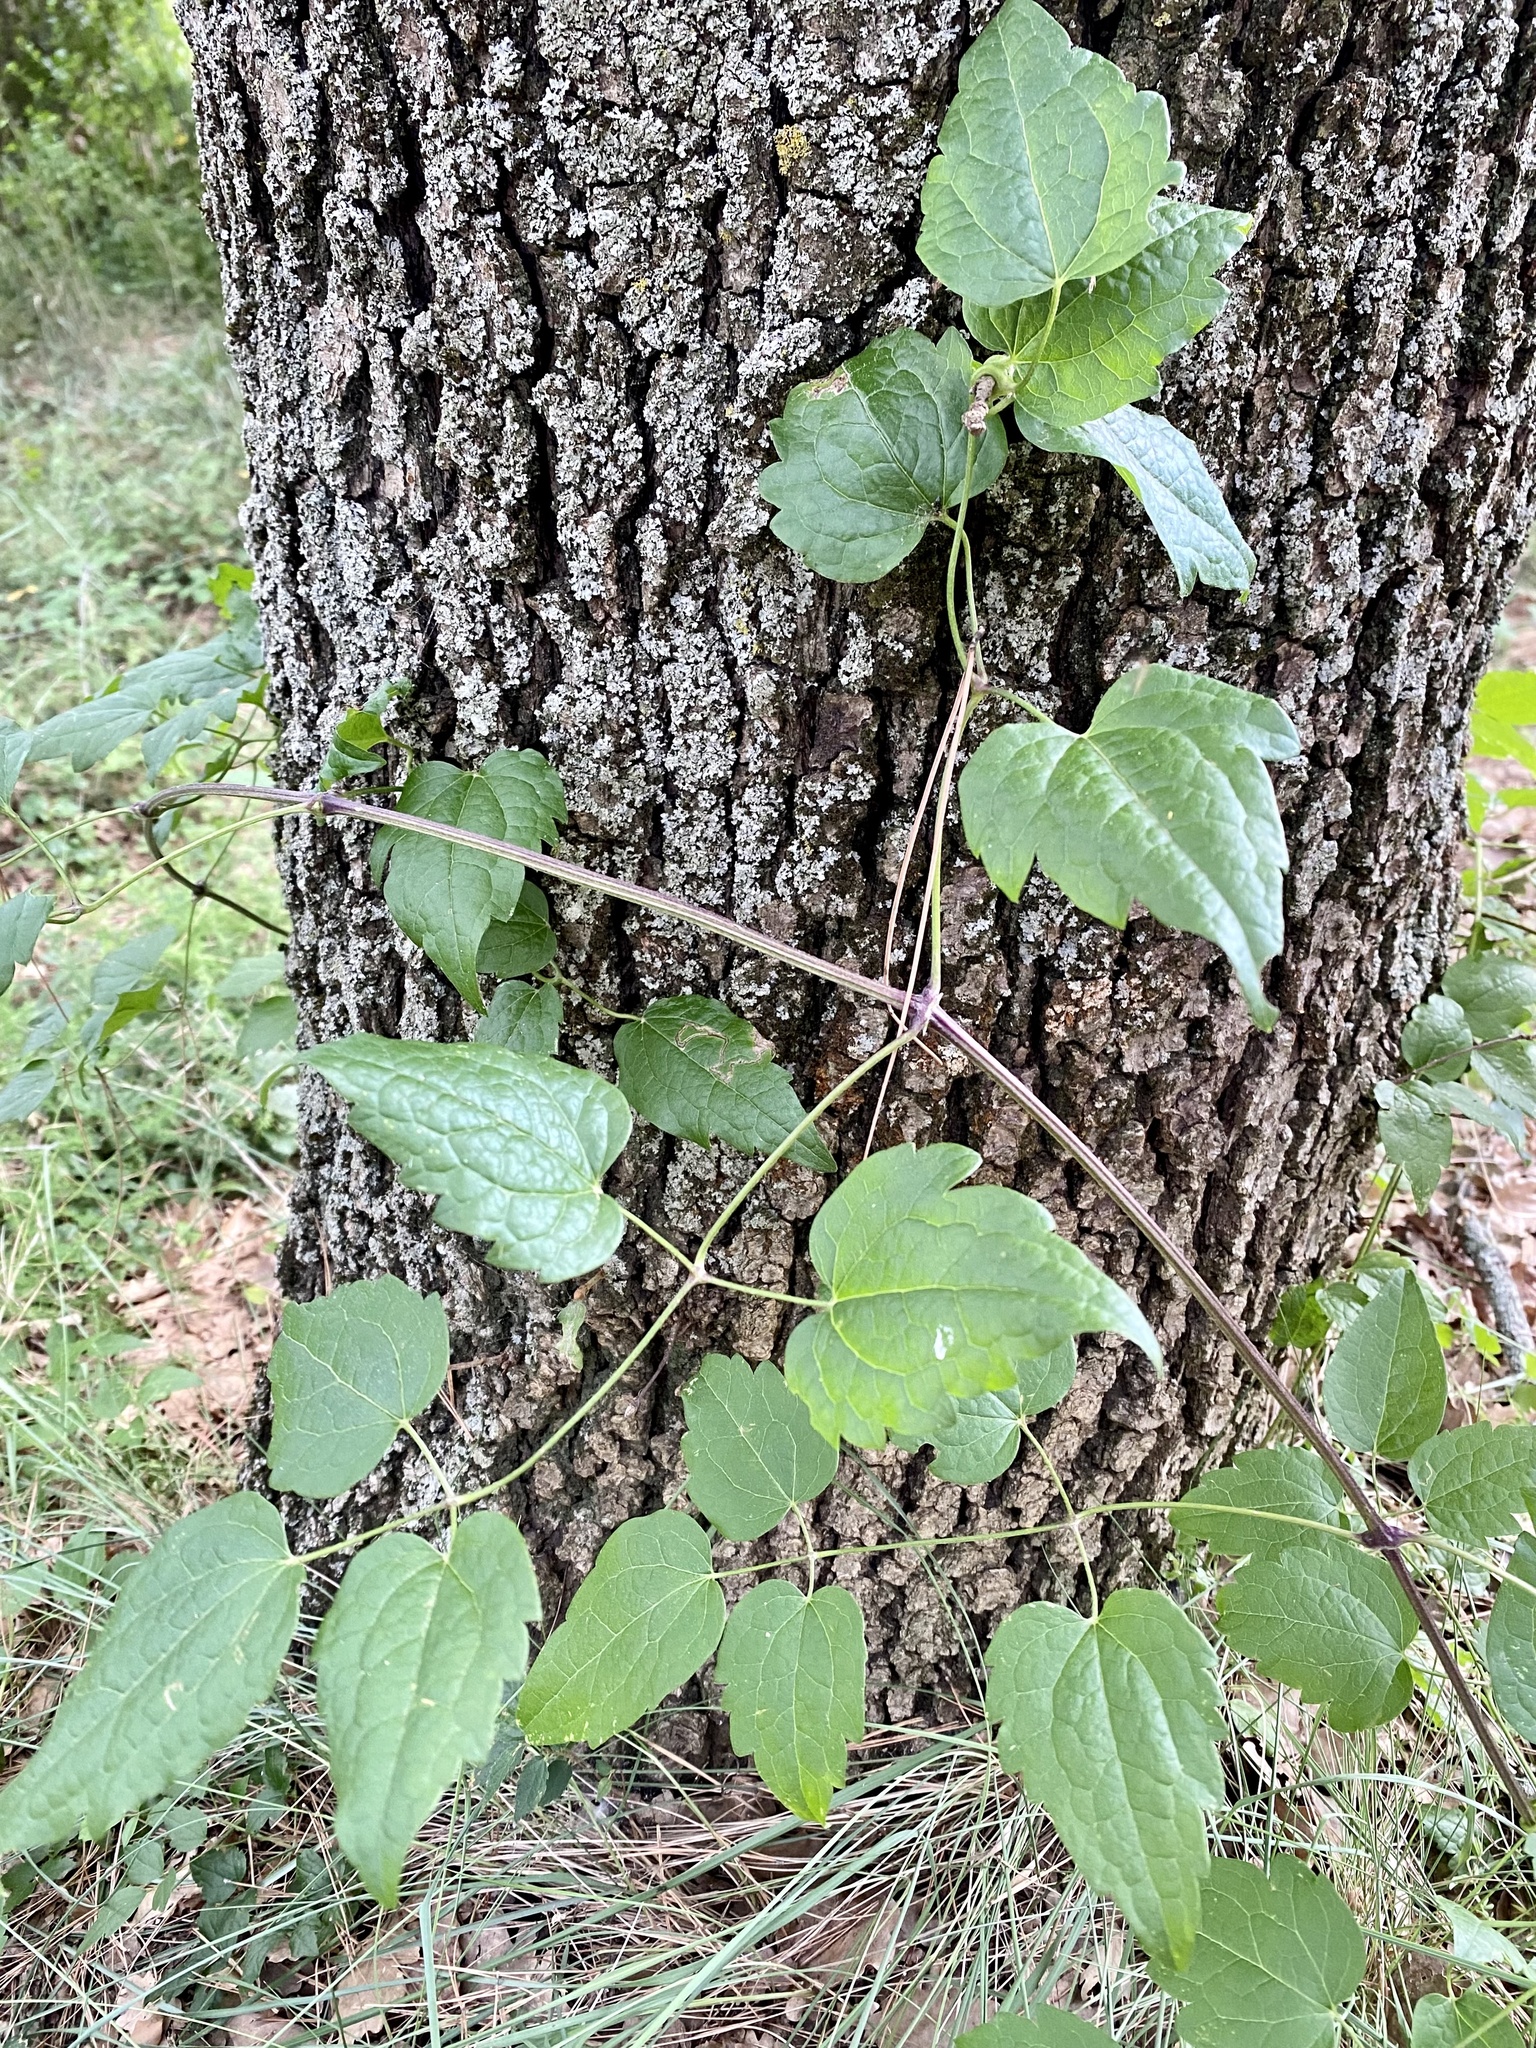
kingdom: Plantae
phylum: Tracheophyta
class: Magnoliopsida
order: Ranunculales
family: Ranunculaceae
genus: Clematis
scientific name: Clematis vitalba
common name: Evergreen clematis
